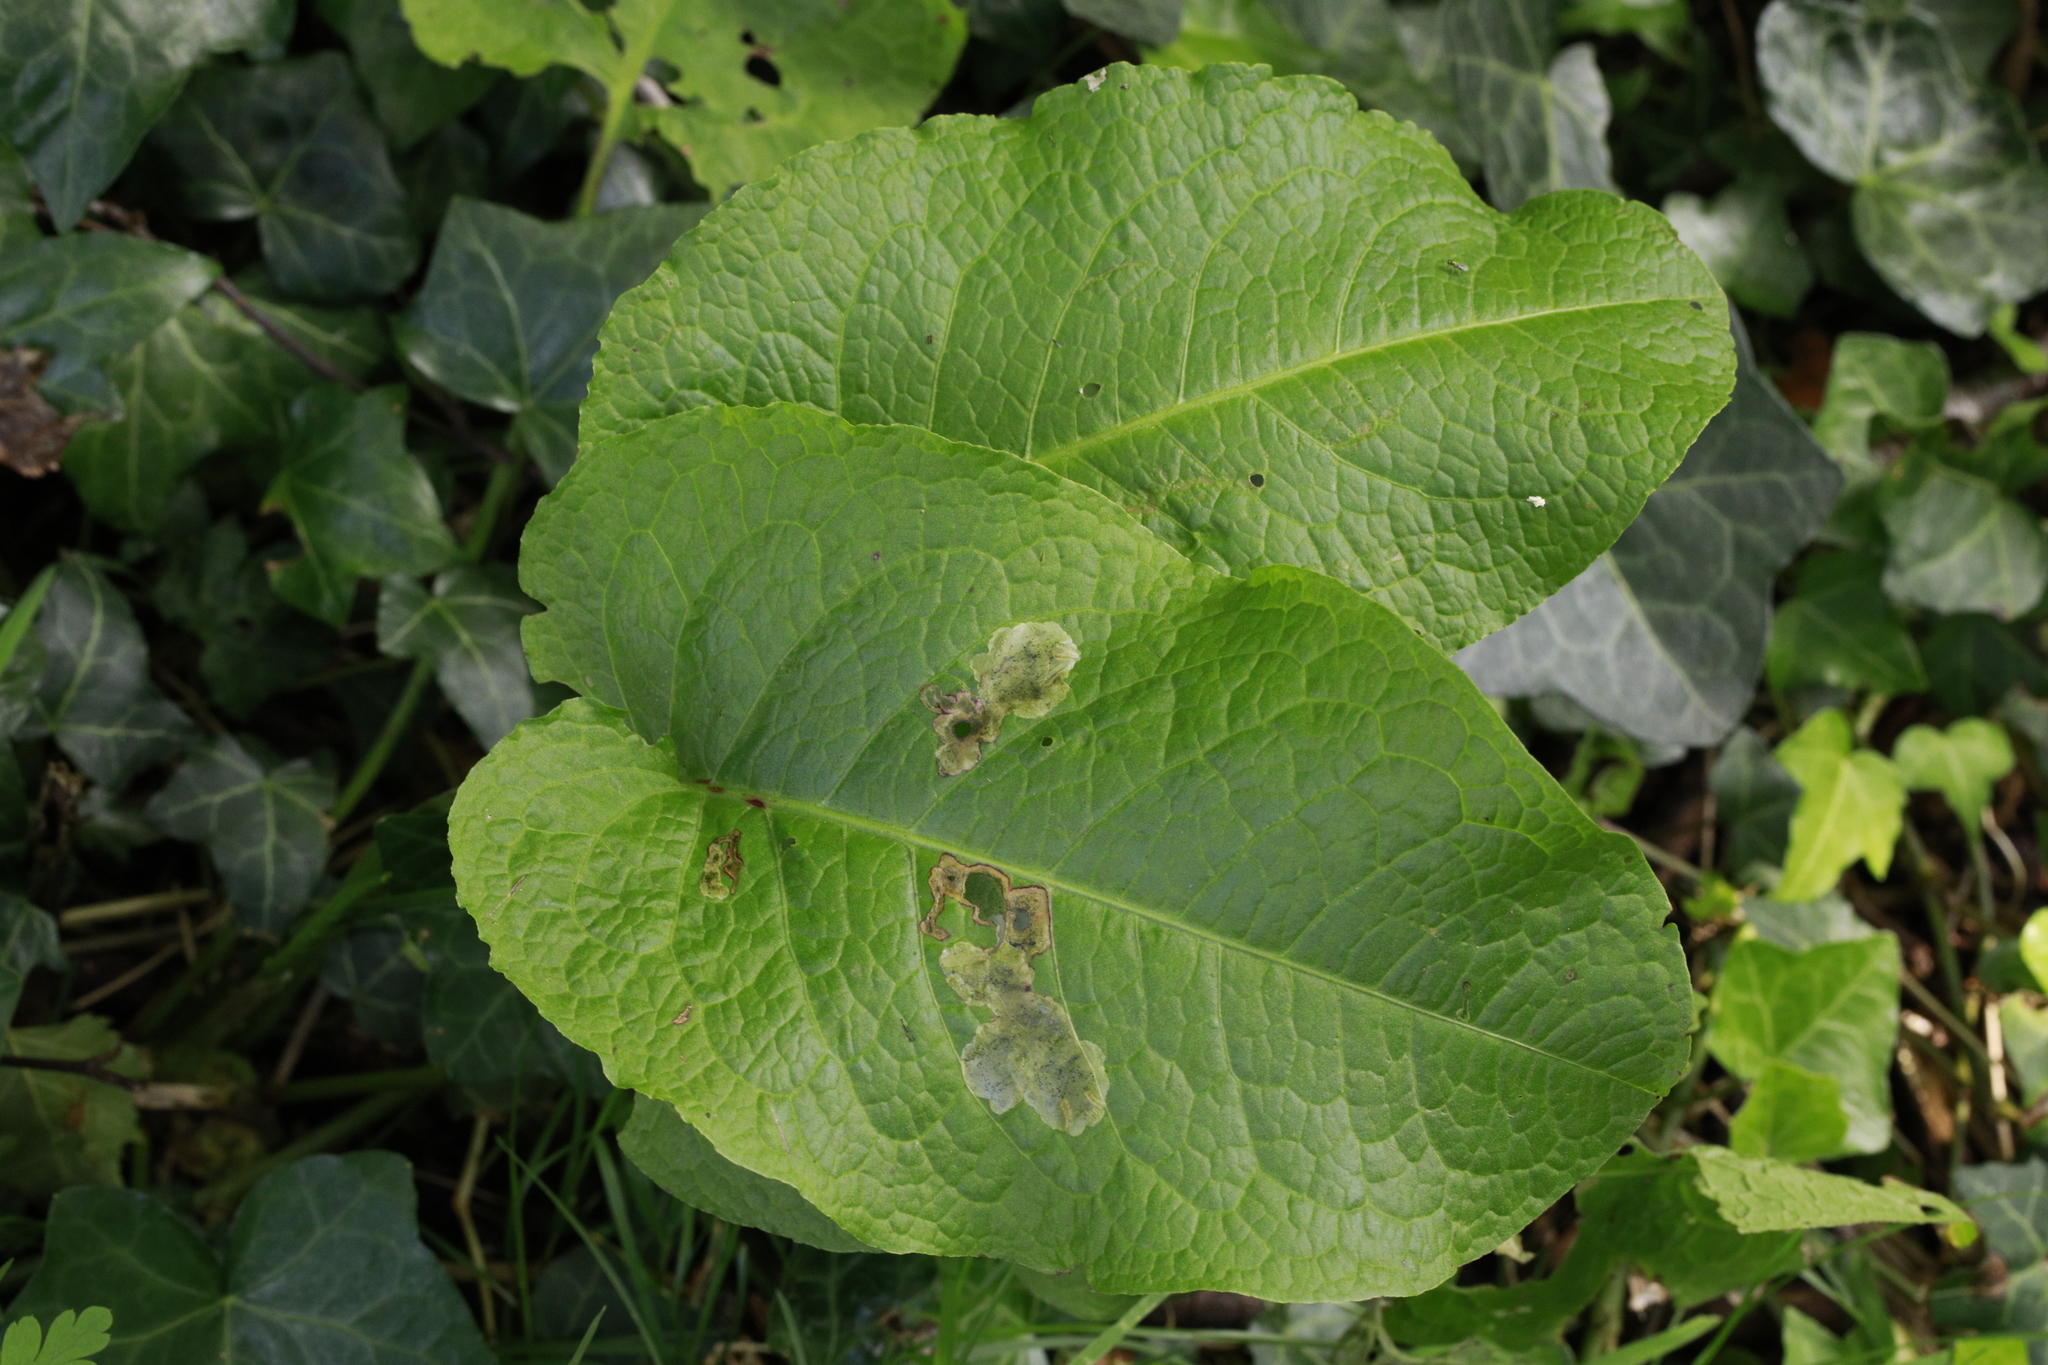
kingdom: Plantae
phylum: Tracheophyta
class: Magnoliopsida
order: Caryophyllales
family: Polygonaceae
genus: Rumex
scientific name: Rumex obtusifolius
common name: Bitter dock
